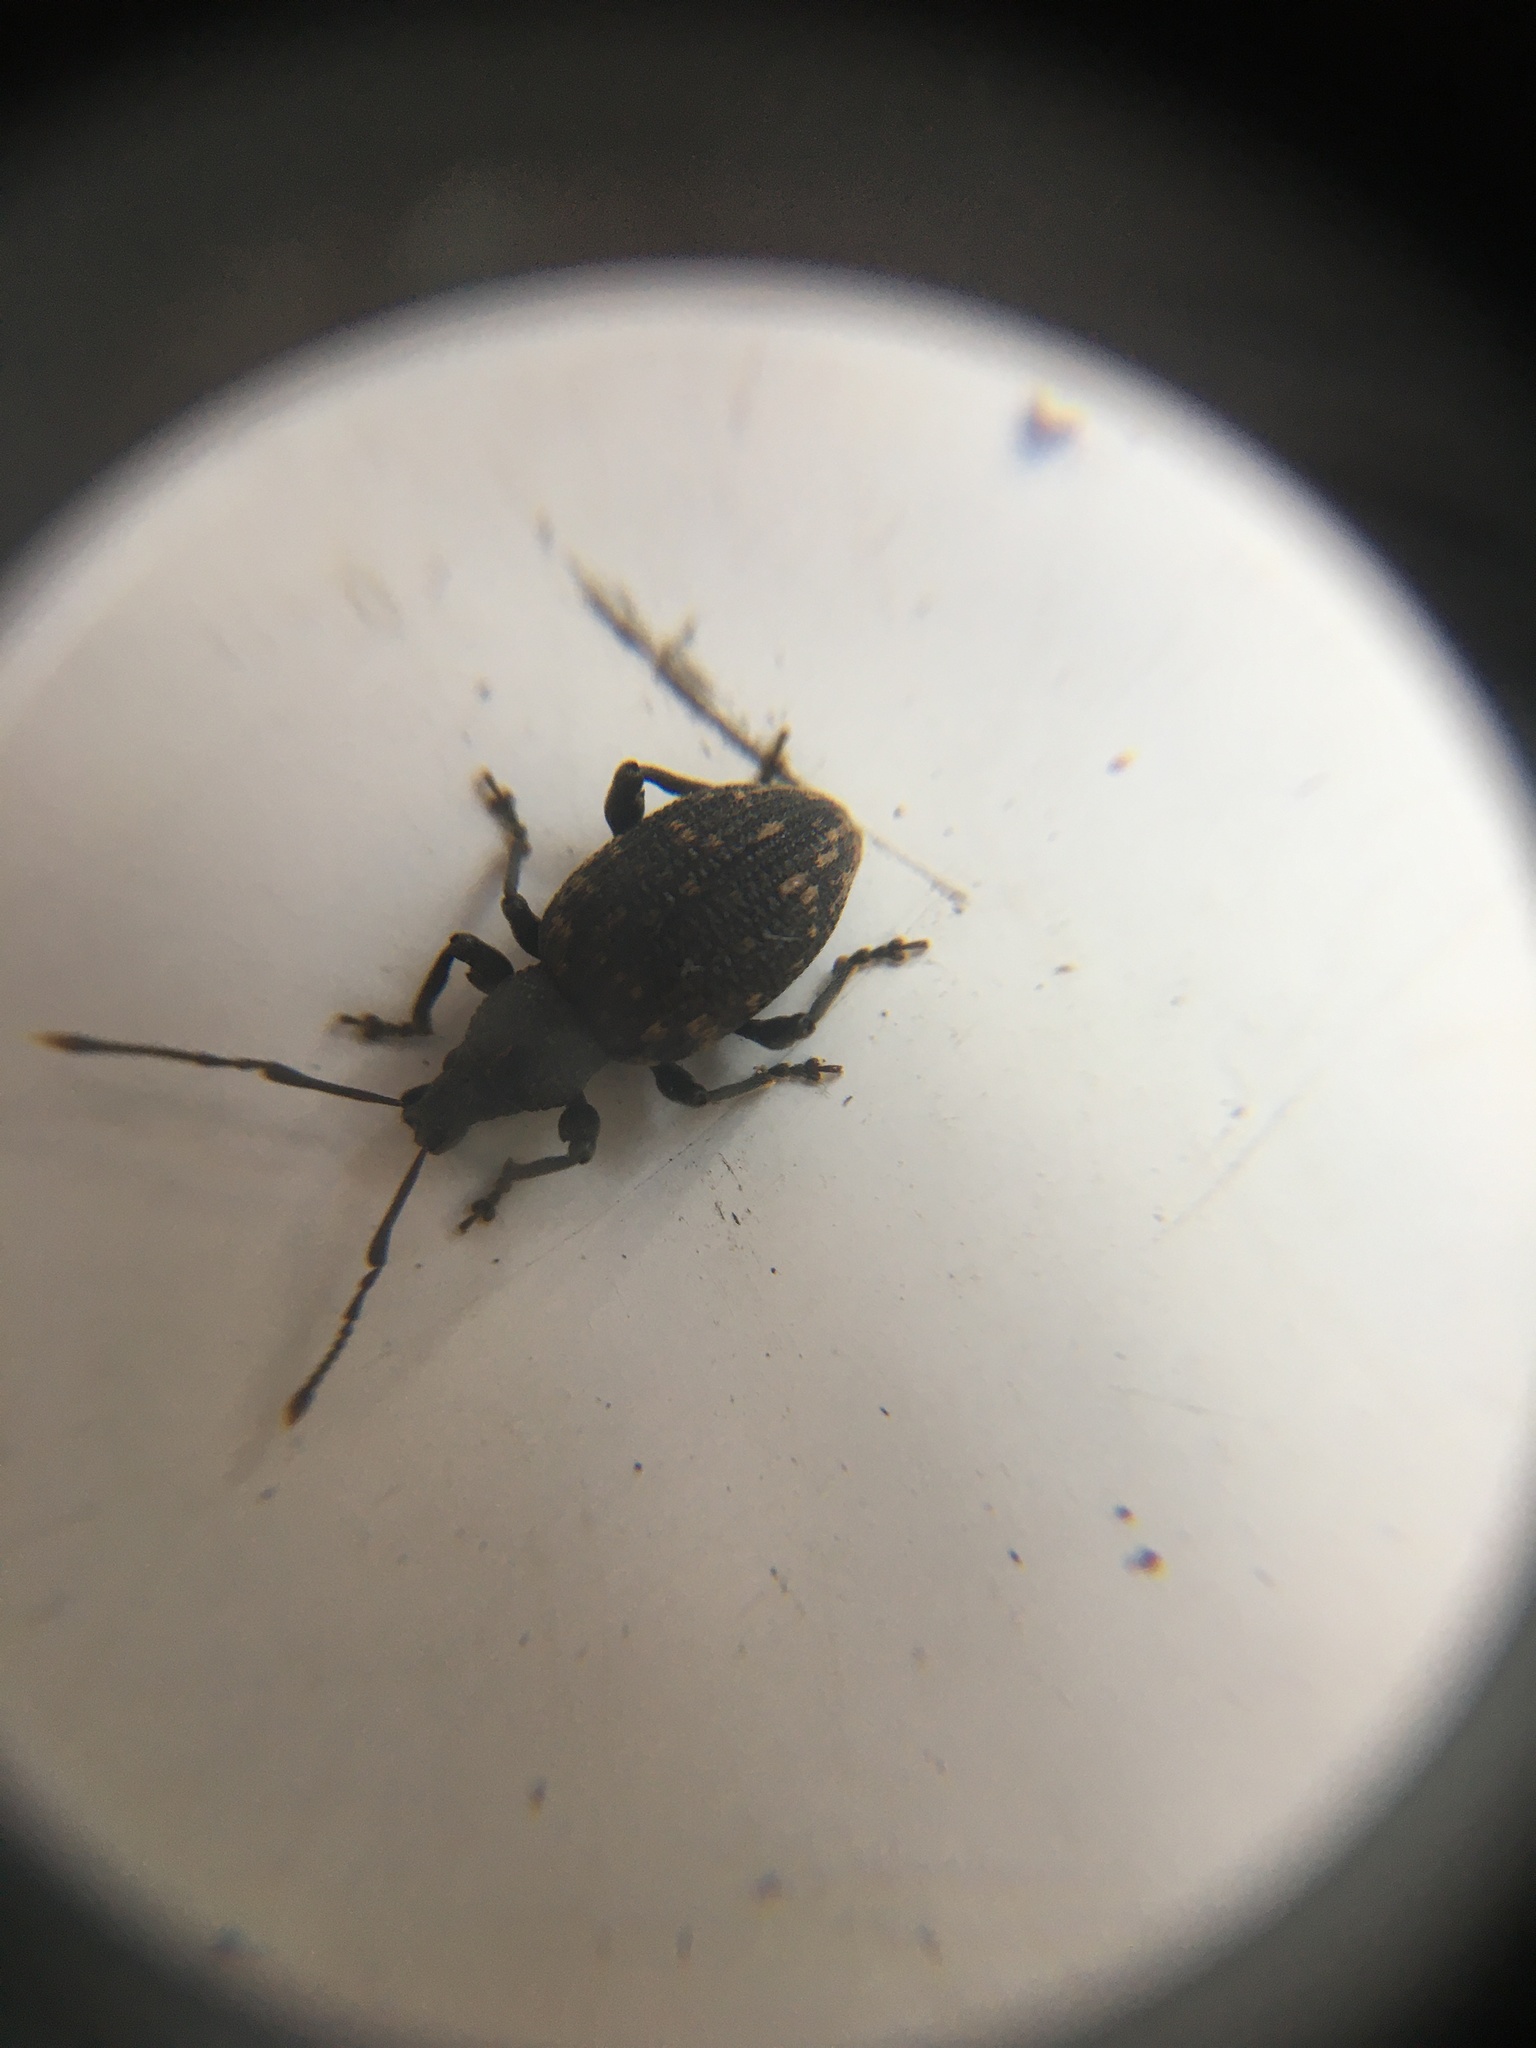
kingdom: Animalia
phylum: Arthropoda
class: Insecta
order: Coleoptera
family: Curculionidae
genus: Otiorhynchus
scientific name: Otiorhynchus sulcatus
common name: Black vine weevil
